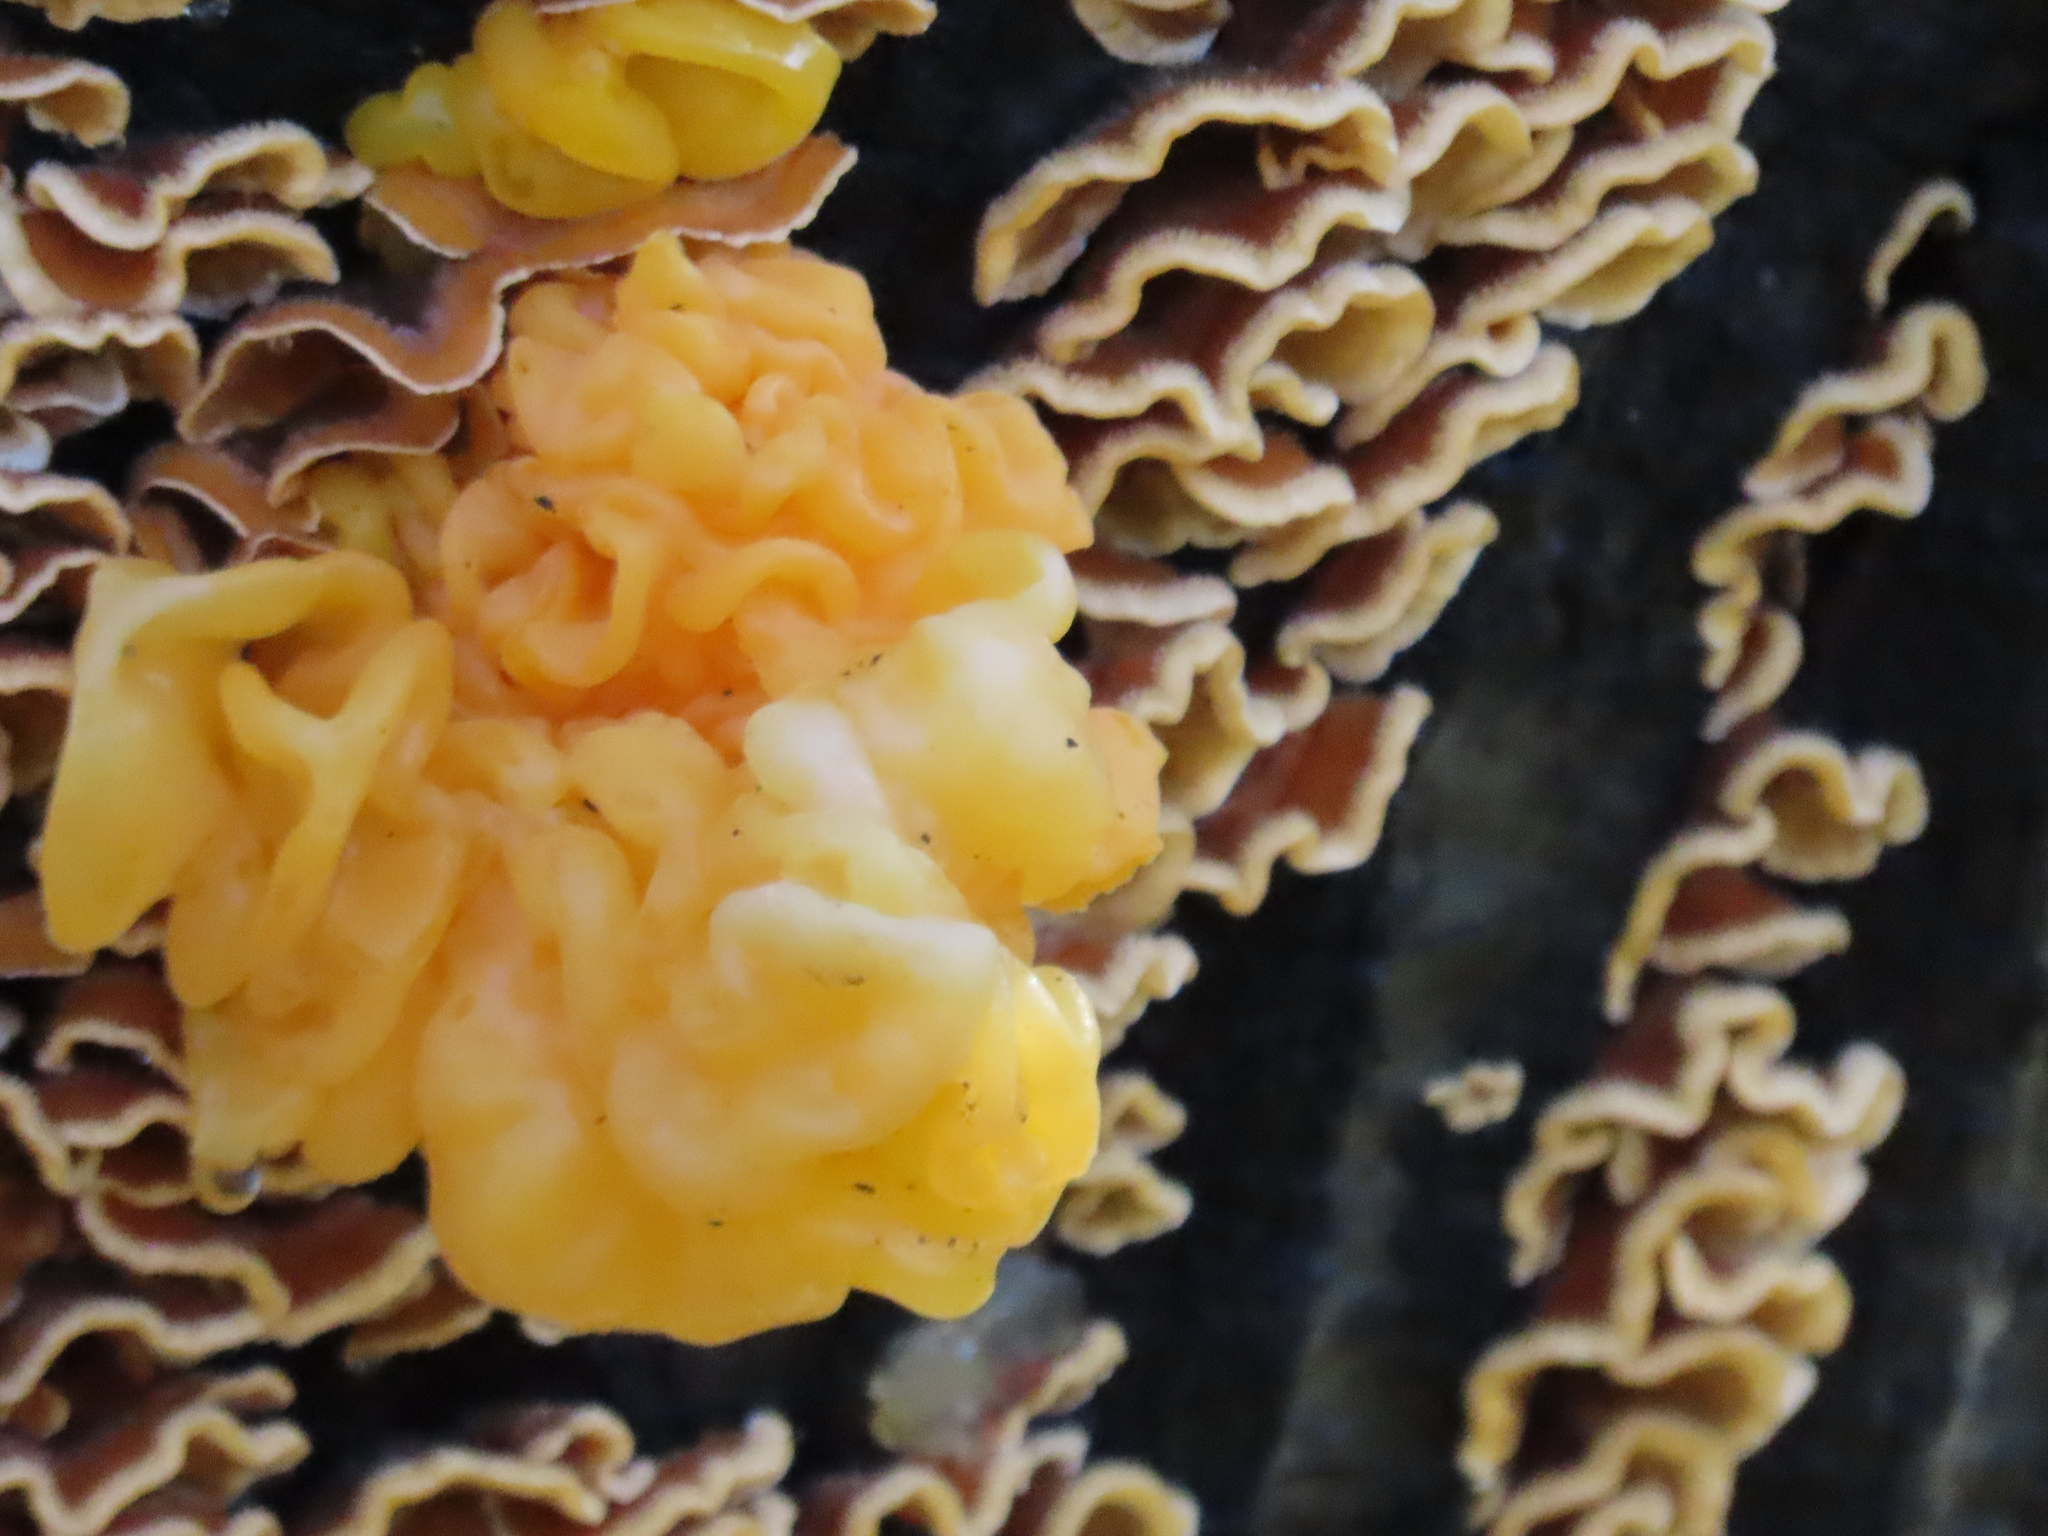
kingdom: Fungi
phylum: Basidiomycota
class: Tremellomycetes
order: Tremellales
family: Naemateliaceae
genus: Naematelia
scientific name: Naematelia aurantia
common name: Golden ear
